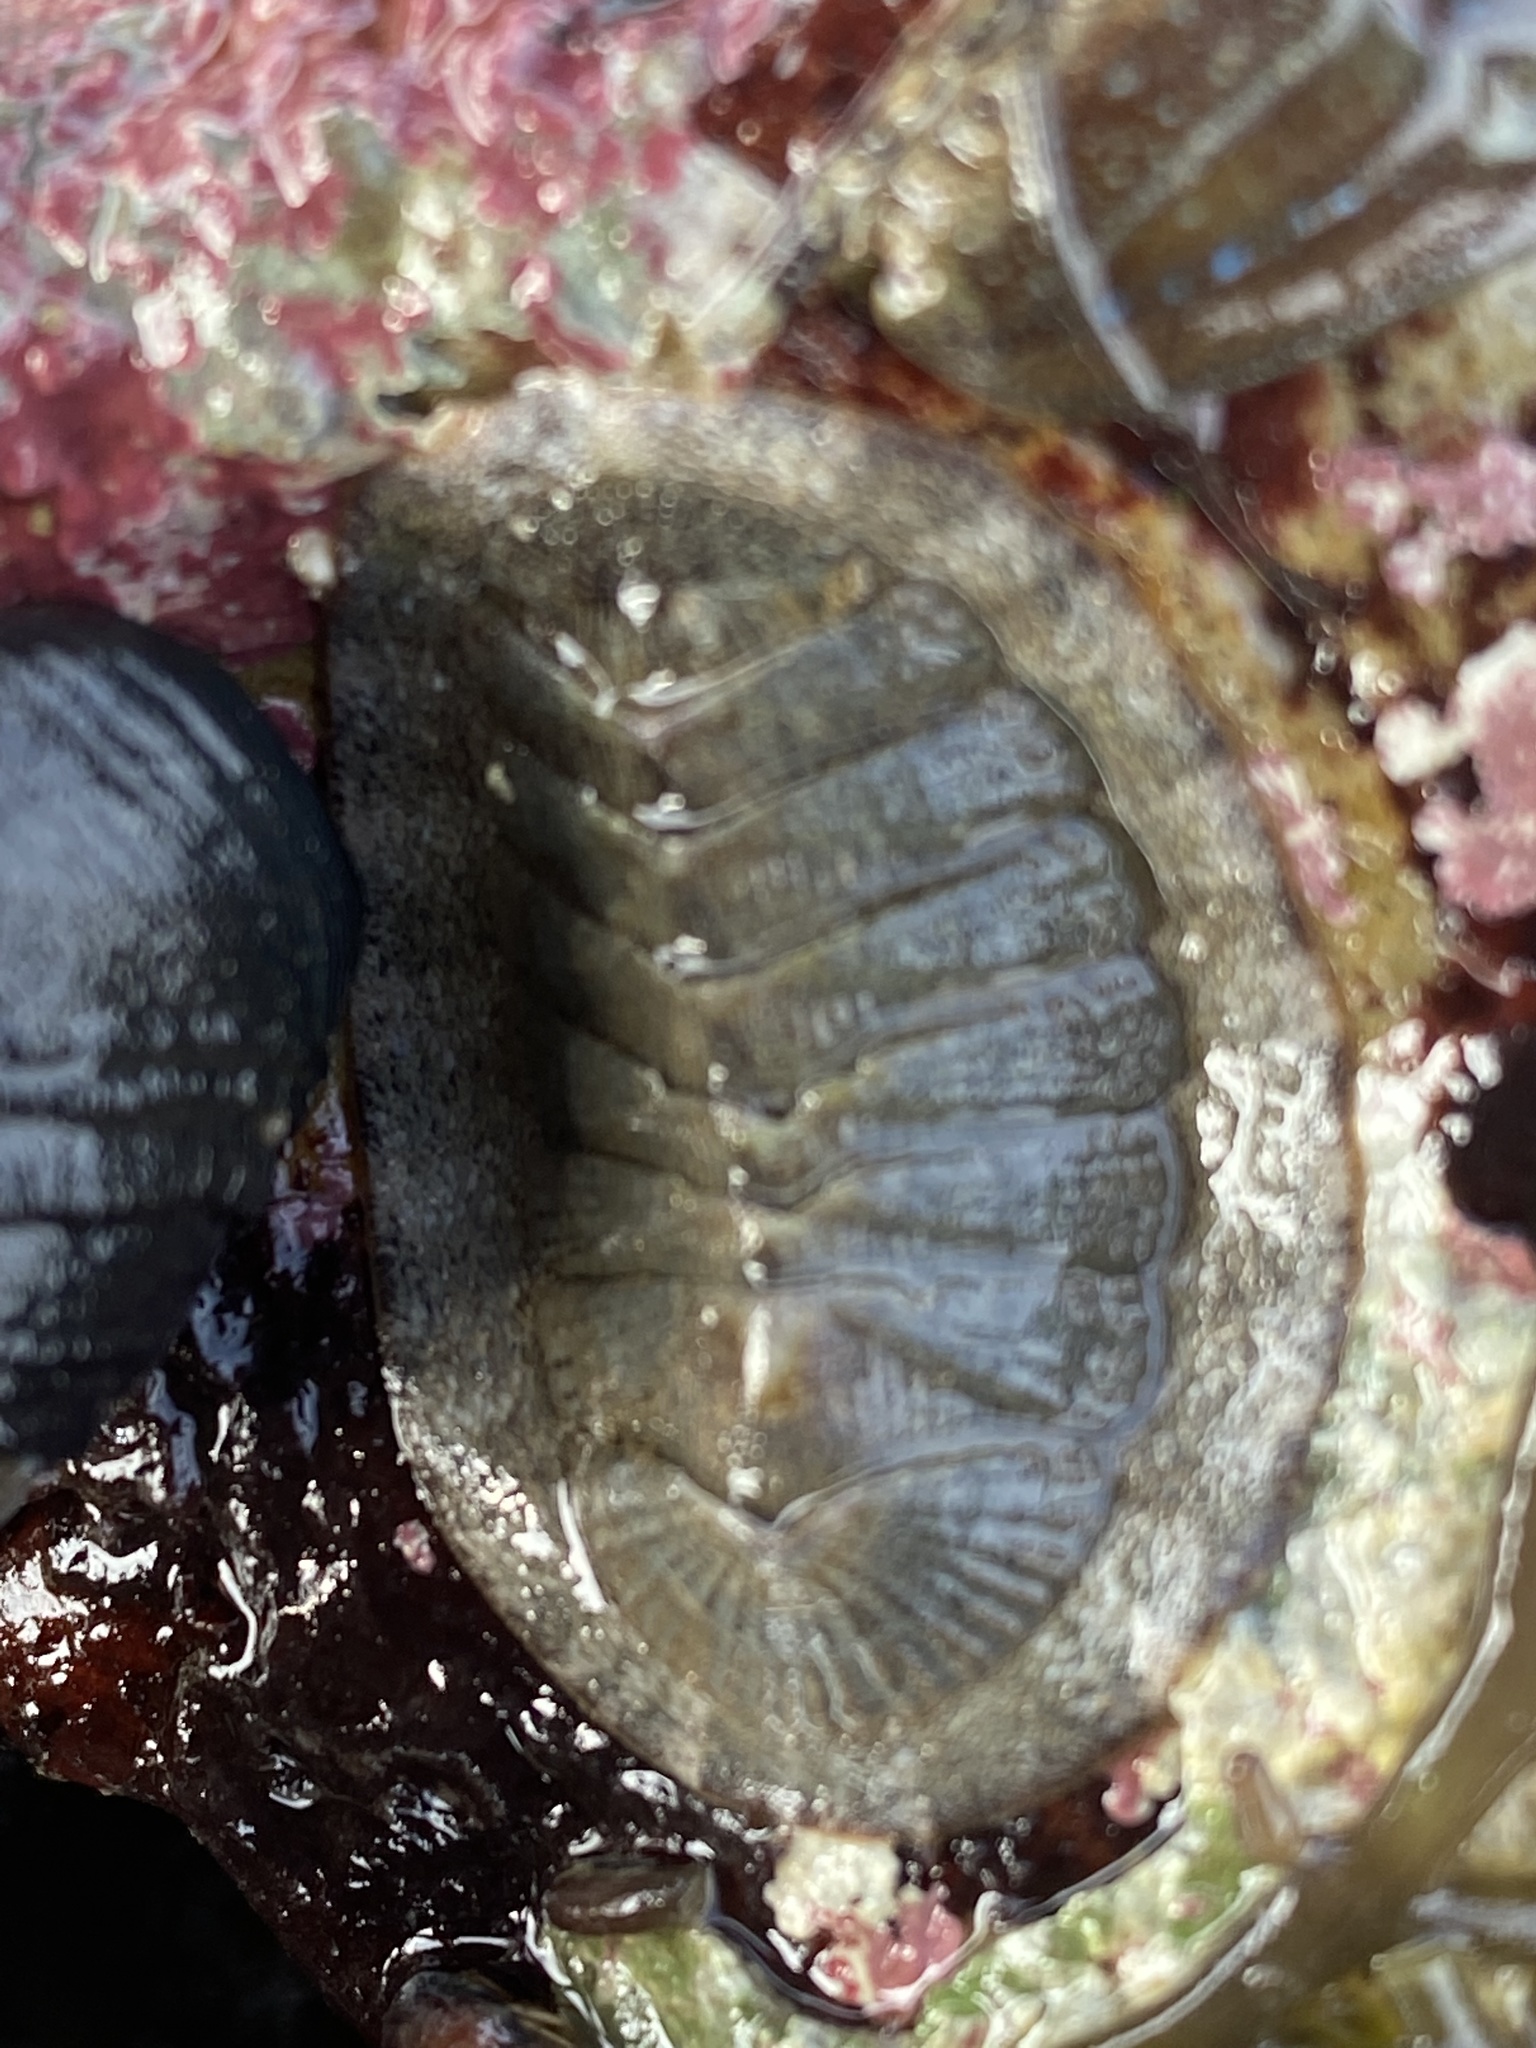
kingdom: Animalia
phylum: Mollusca
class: Polyplacophora
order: Chitonida
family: Ischnochitonidae
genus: Lepidozona
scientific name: Lepidozona cooperi
